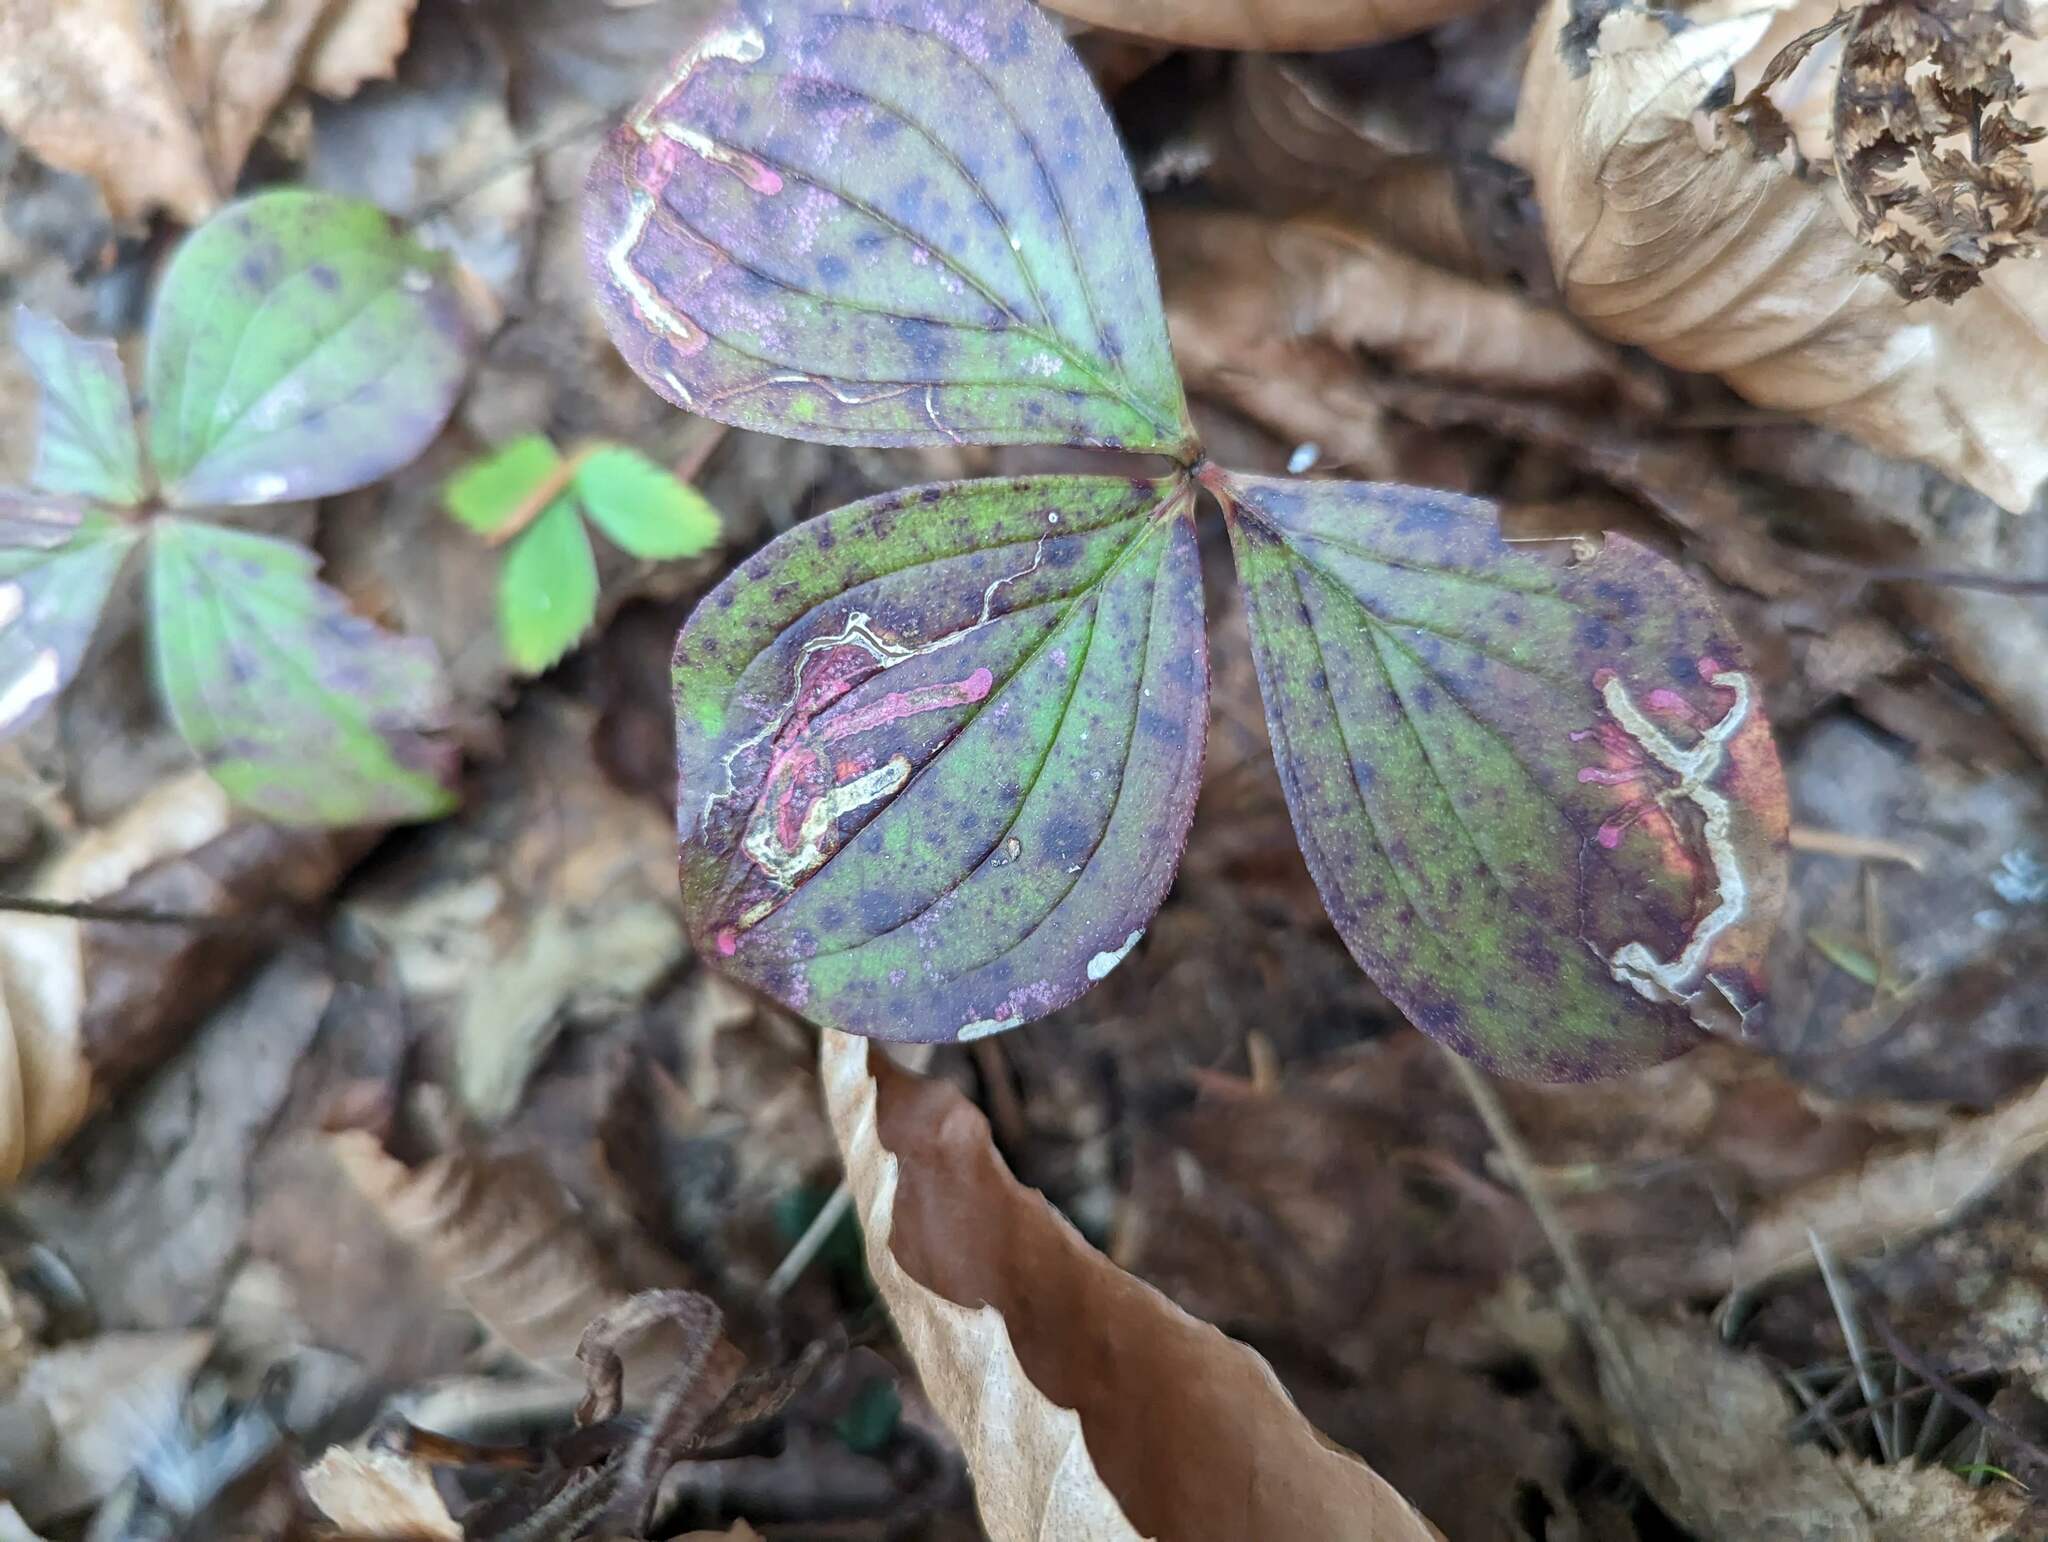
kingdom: Animalia
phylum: Arthropoda
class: Insecta
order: Diptera
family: Agromyzidae
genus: Phytomyza
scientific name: Phytomyza agromyzina
